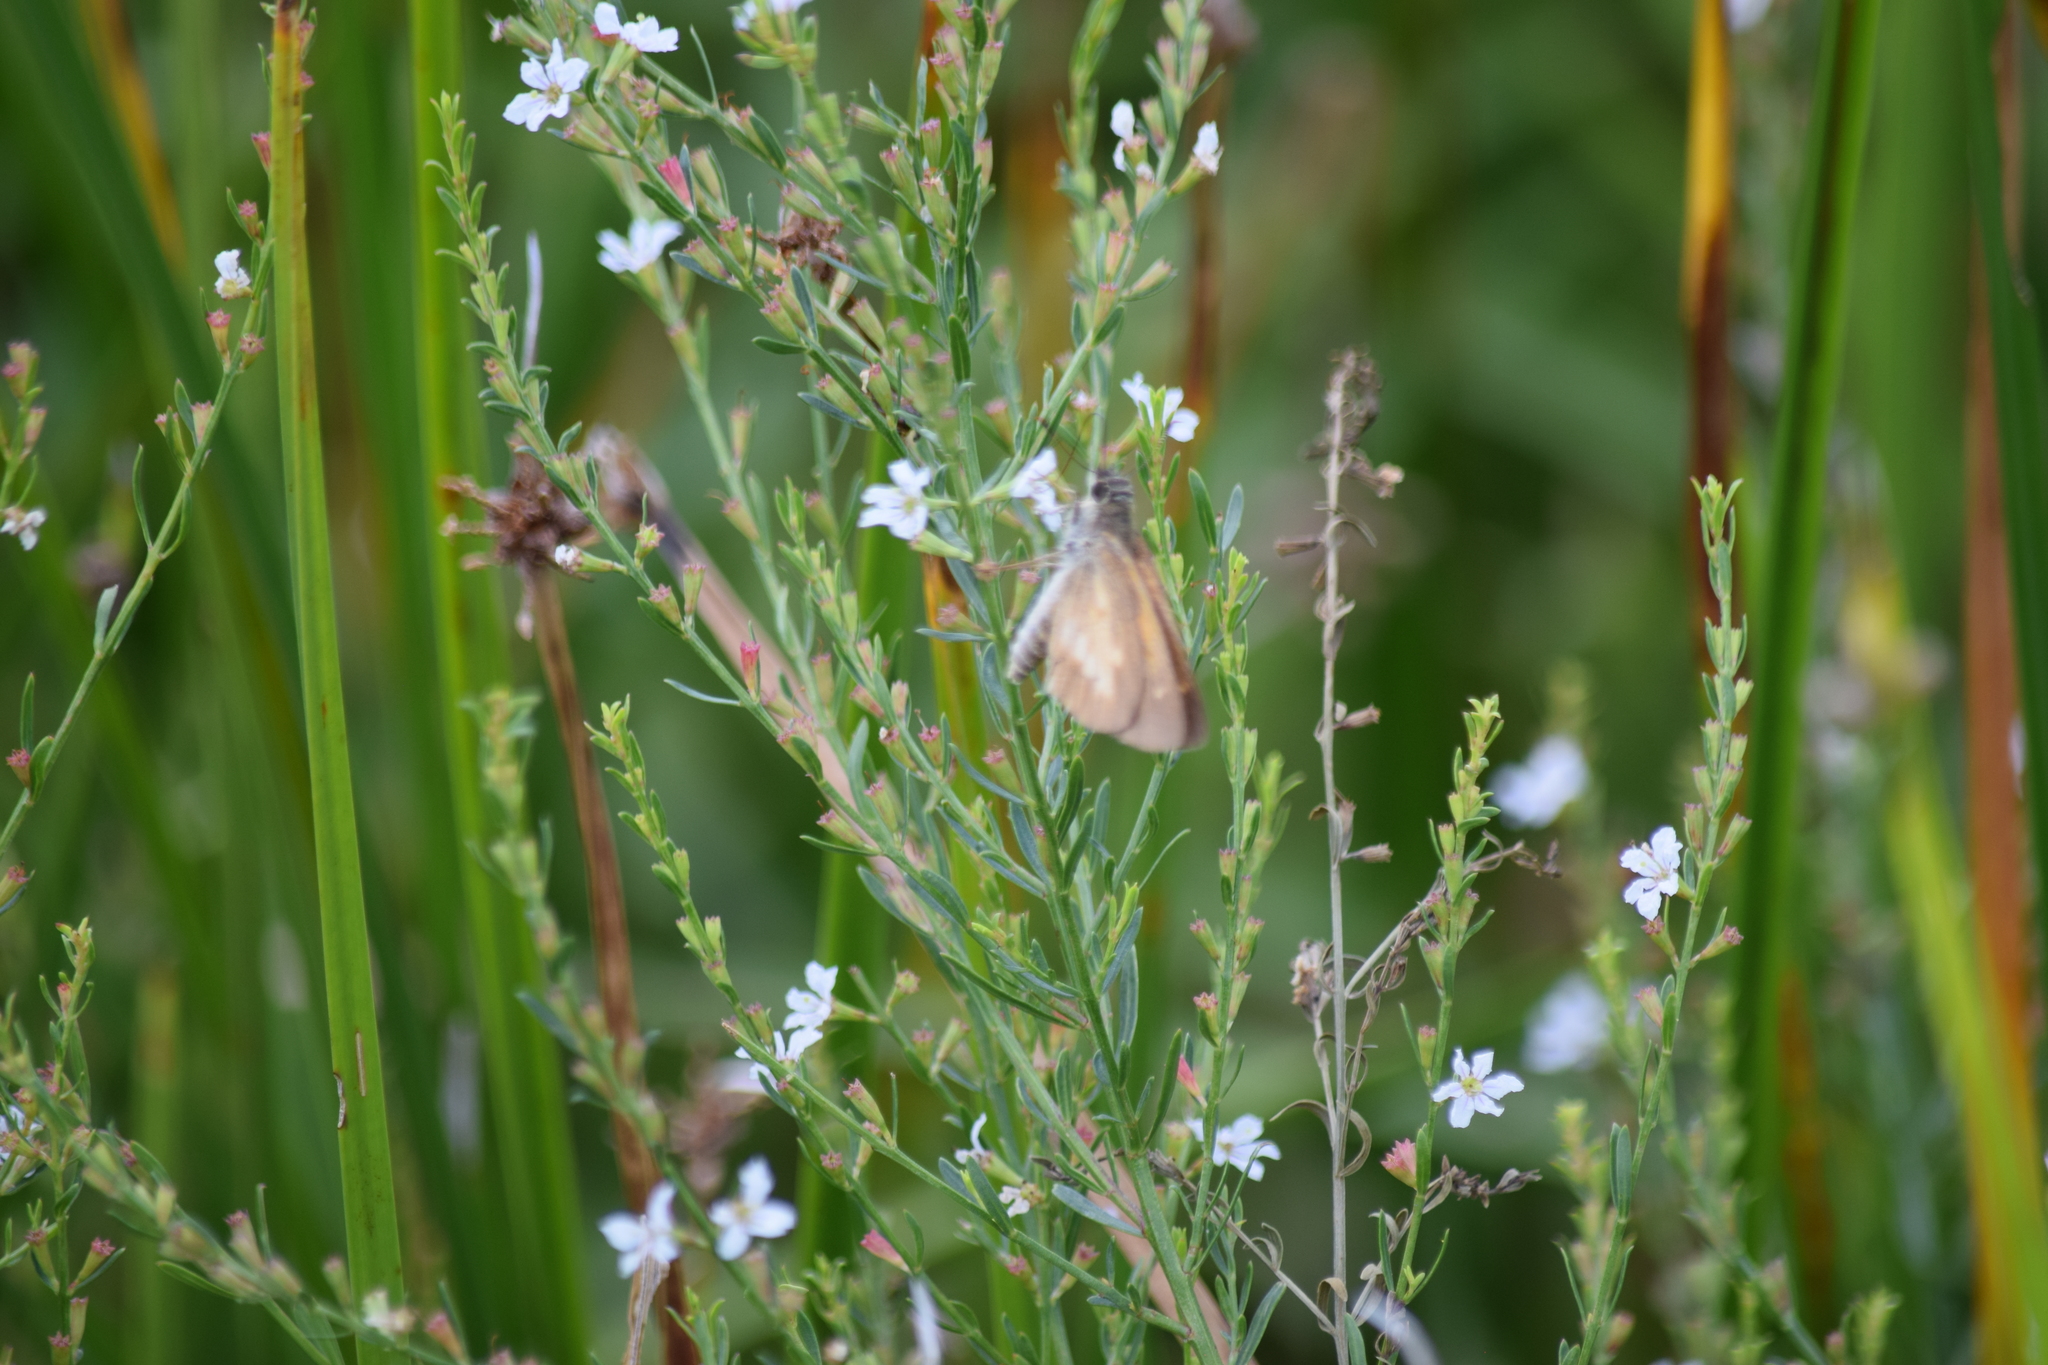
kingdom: Animalia
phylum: Arthropoda
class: Insecta
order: Lepidoptera
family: Hesperiidae
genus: Poanes
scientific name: Poanes viator
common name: Broad-winged skipper
